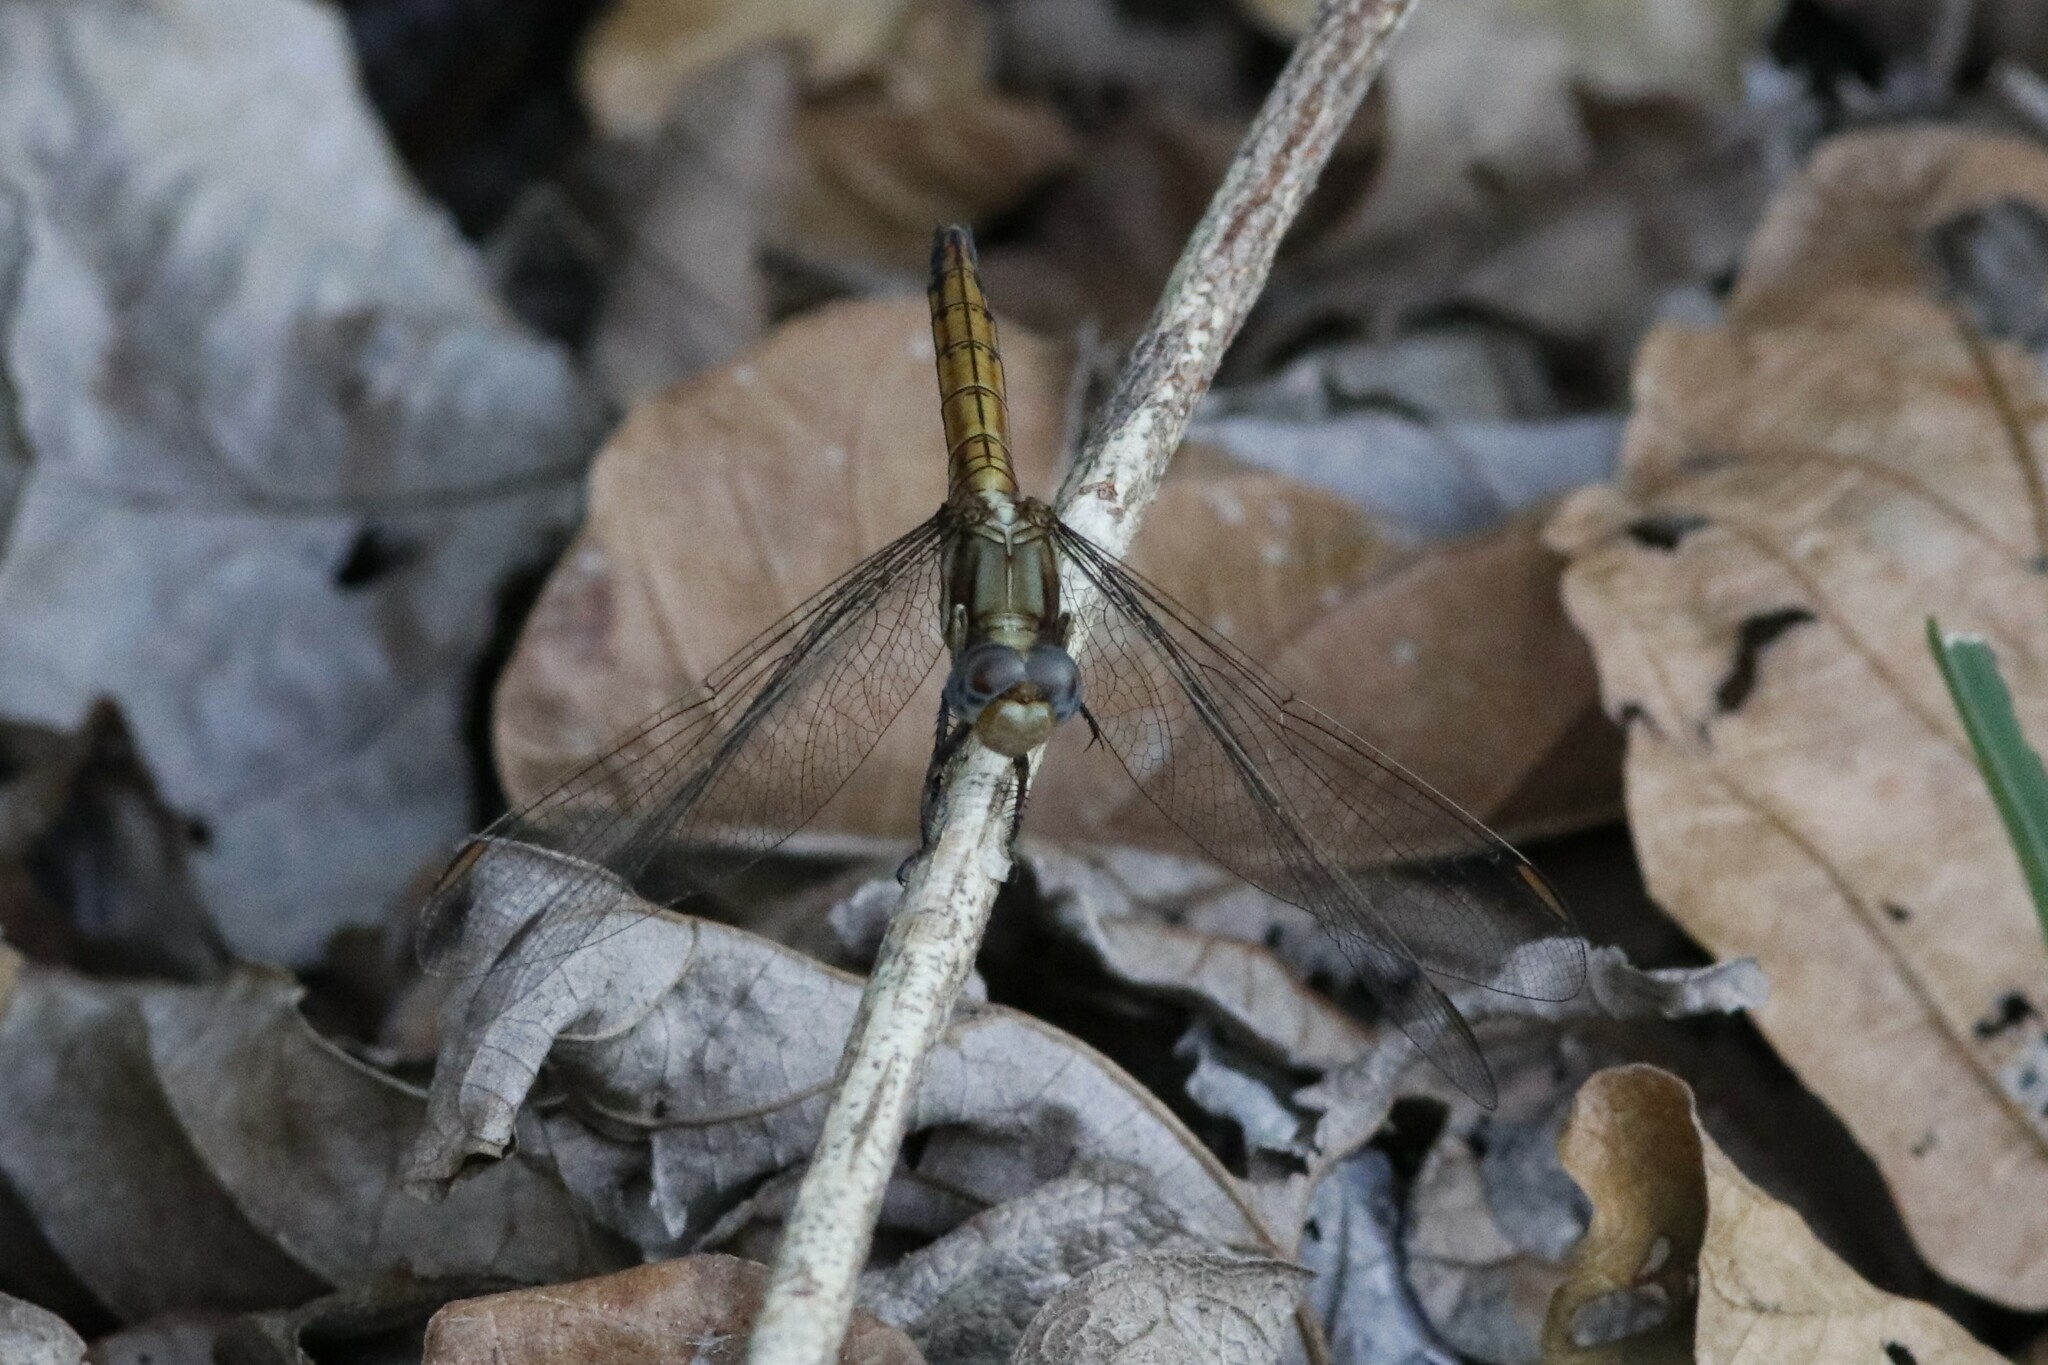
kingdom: Animalia
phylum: Arthropoda
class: Insecta
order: Odonata
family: Libellulidae
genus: Orthetrum
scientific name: Orthetrum chrysostigma
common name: Epaulet skimmer
